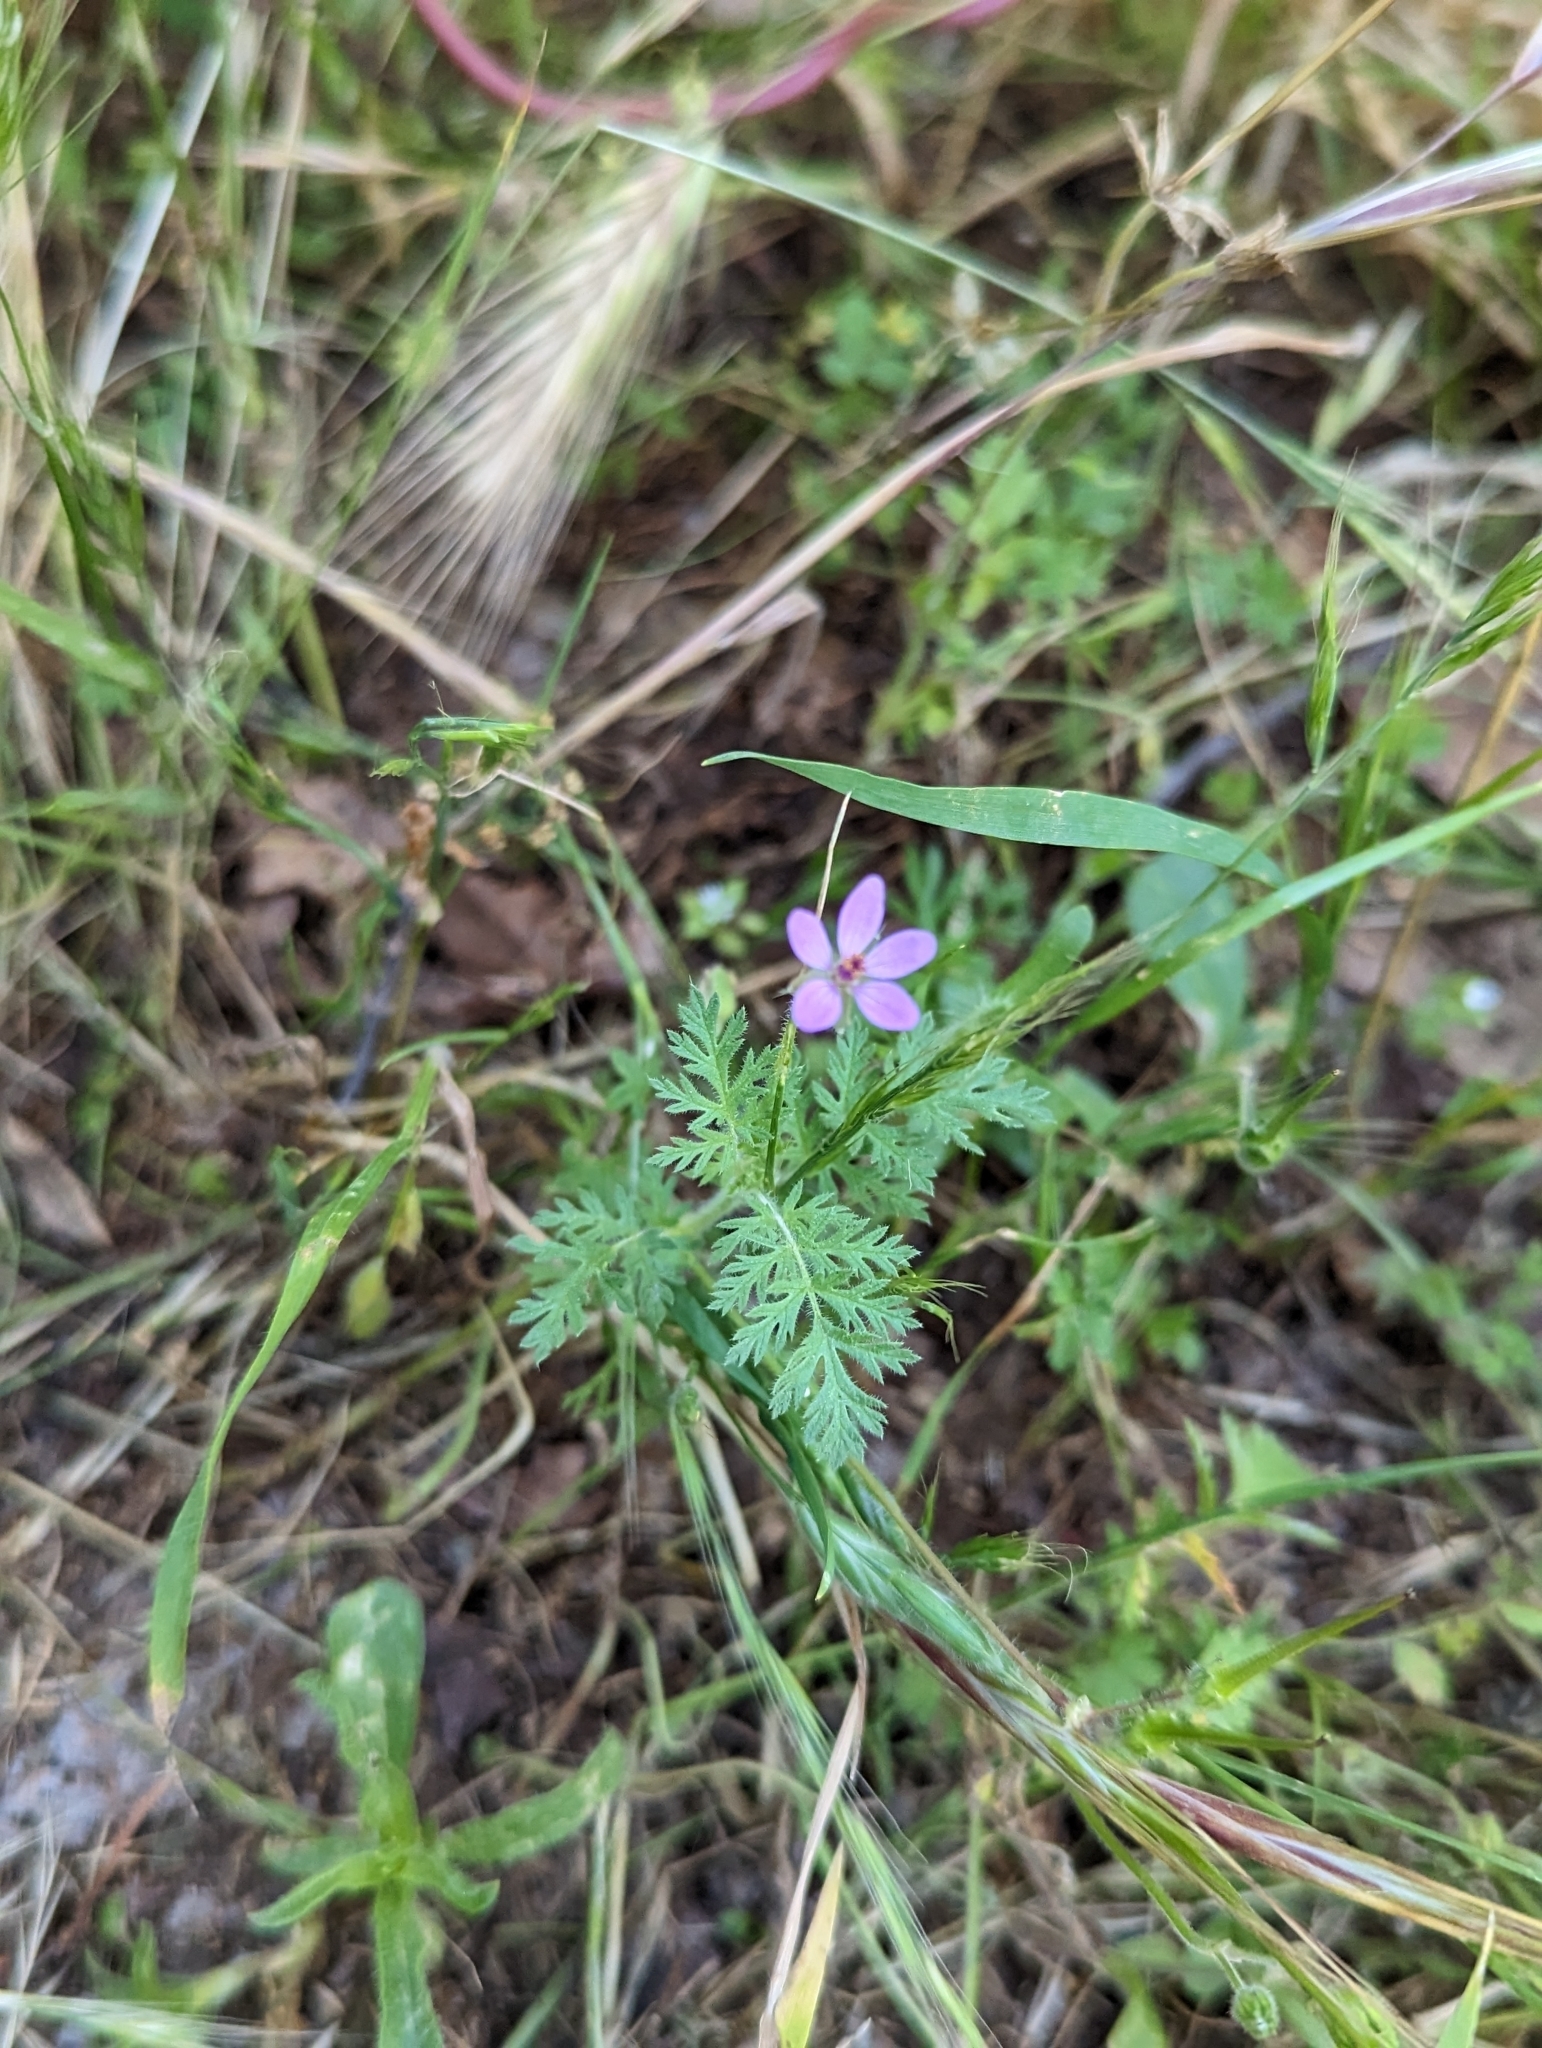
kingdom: Plantae
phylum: Tracheophyta
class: Magnoliopsida
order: Geraniales
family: Geraniaceae
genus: Erodium
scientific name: Erodium cicutarium
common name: Common stork's-bill
